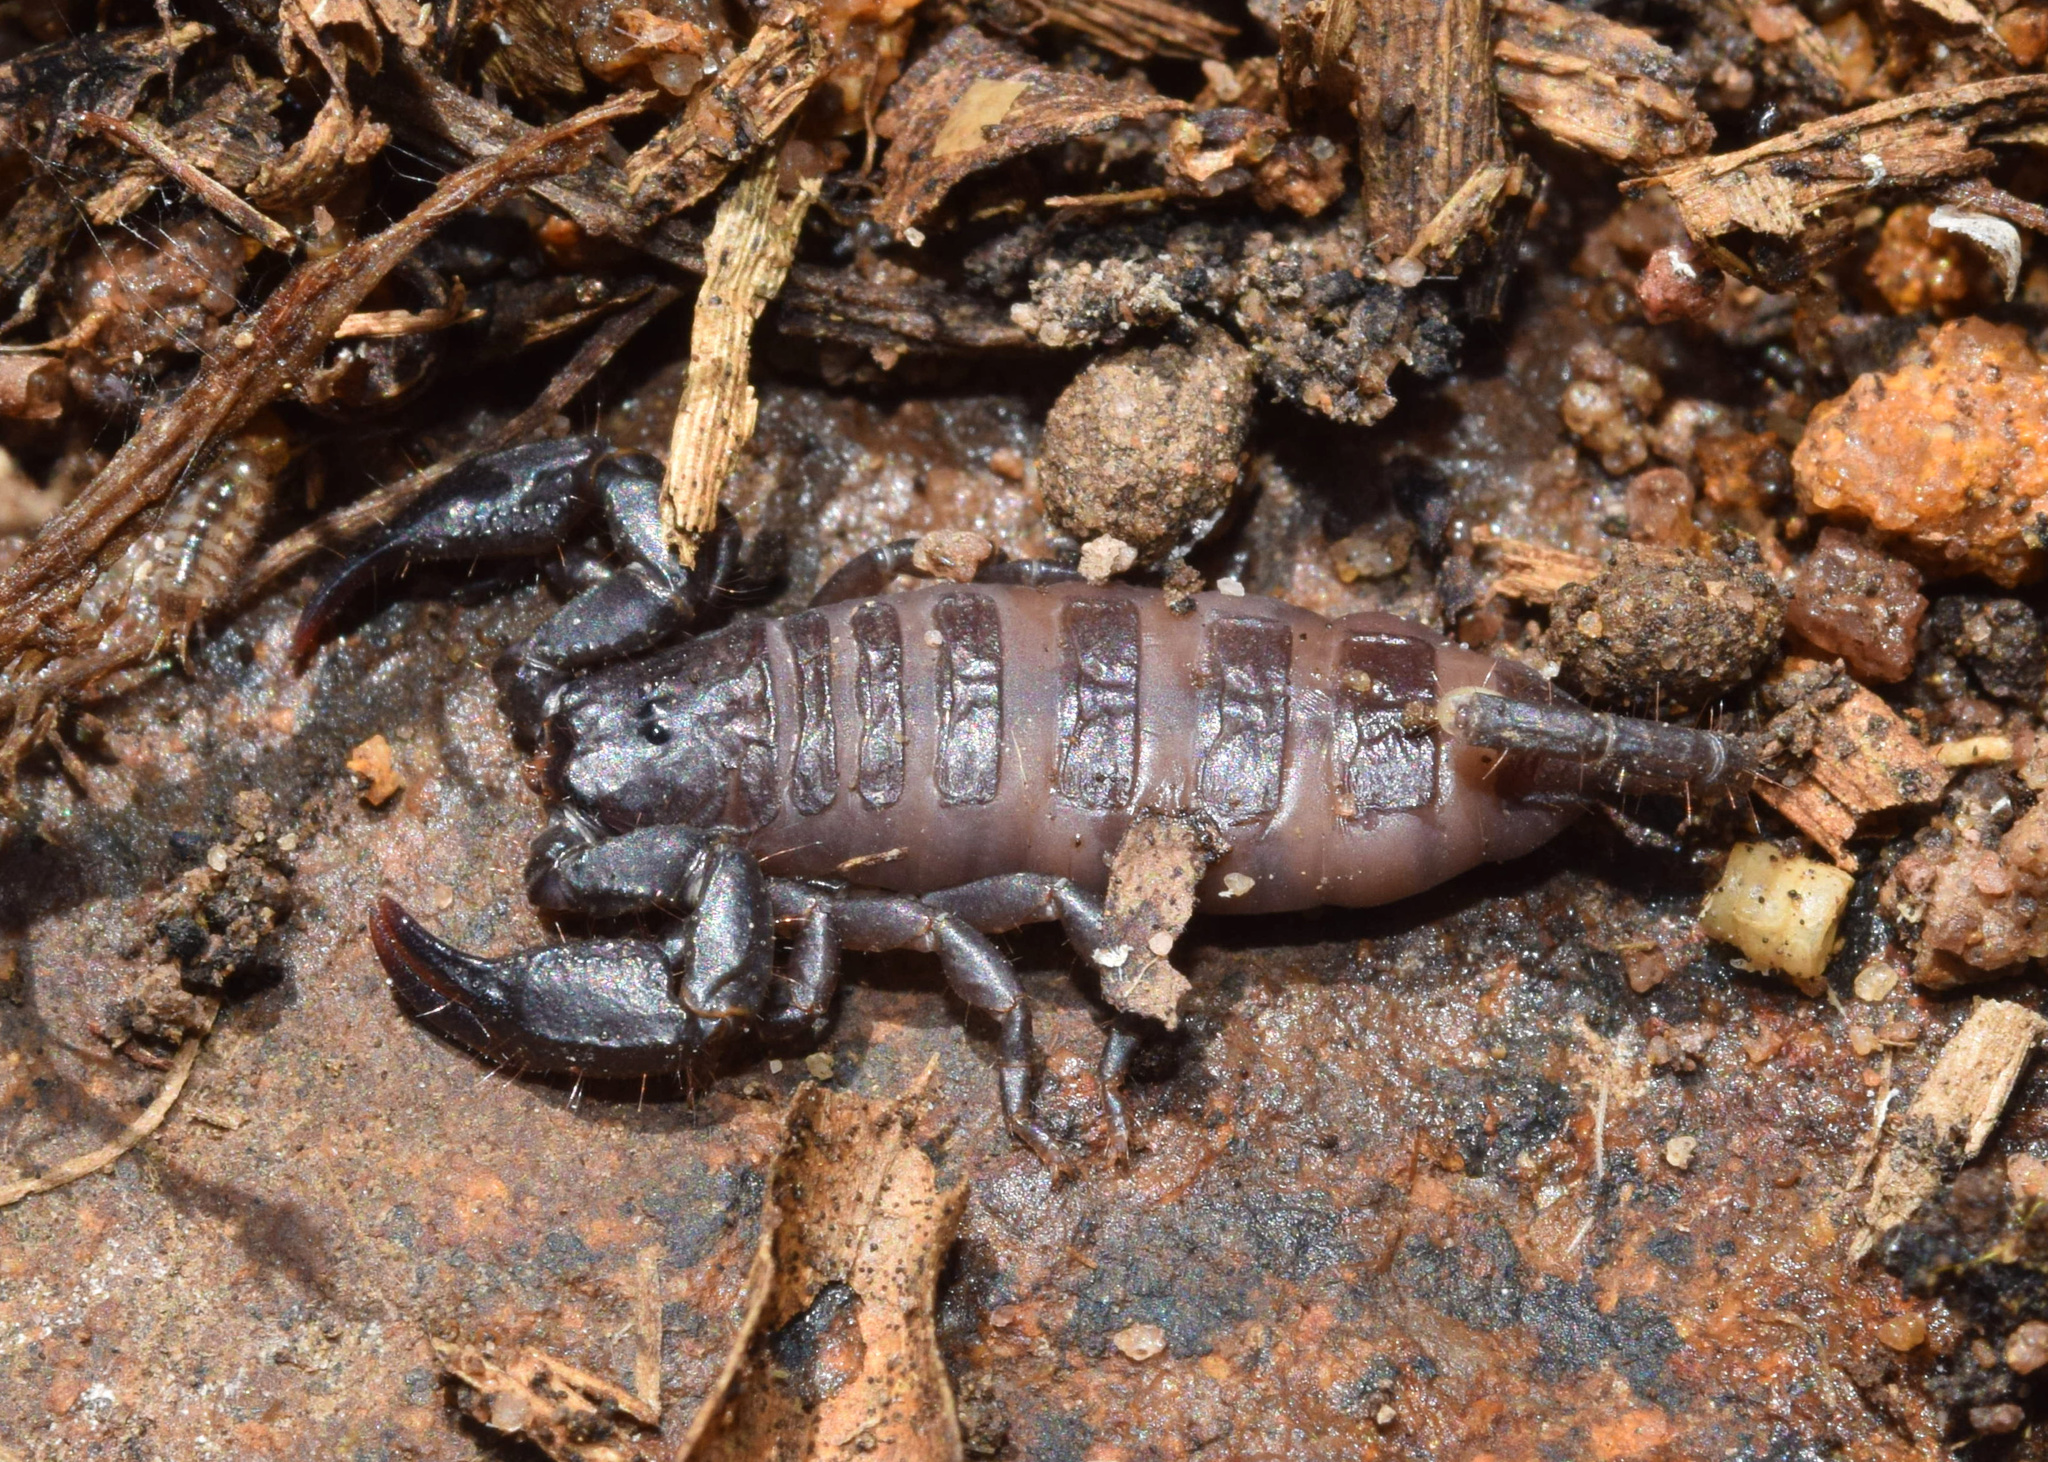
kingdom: Animalia
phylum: Arthropoda
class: Arachnida
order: Scorpiones
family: Hormuridae
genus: Opisthacanthus
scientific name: Opisthacanthus validus
